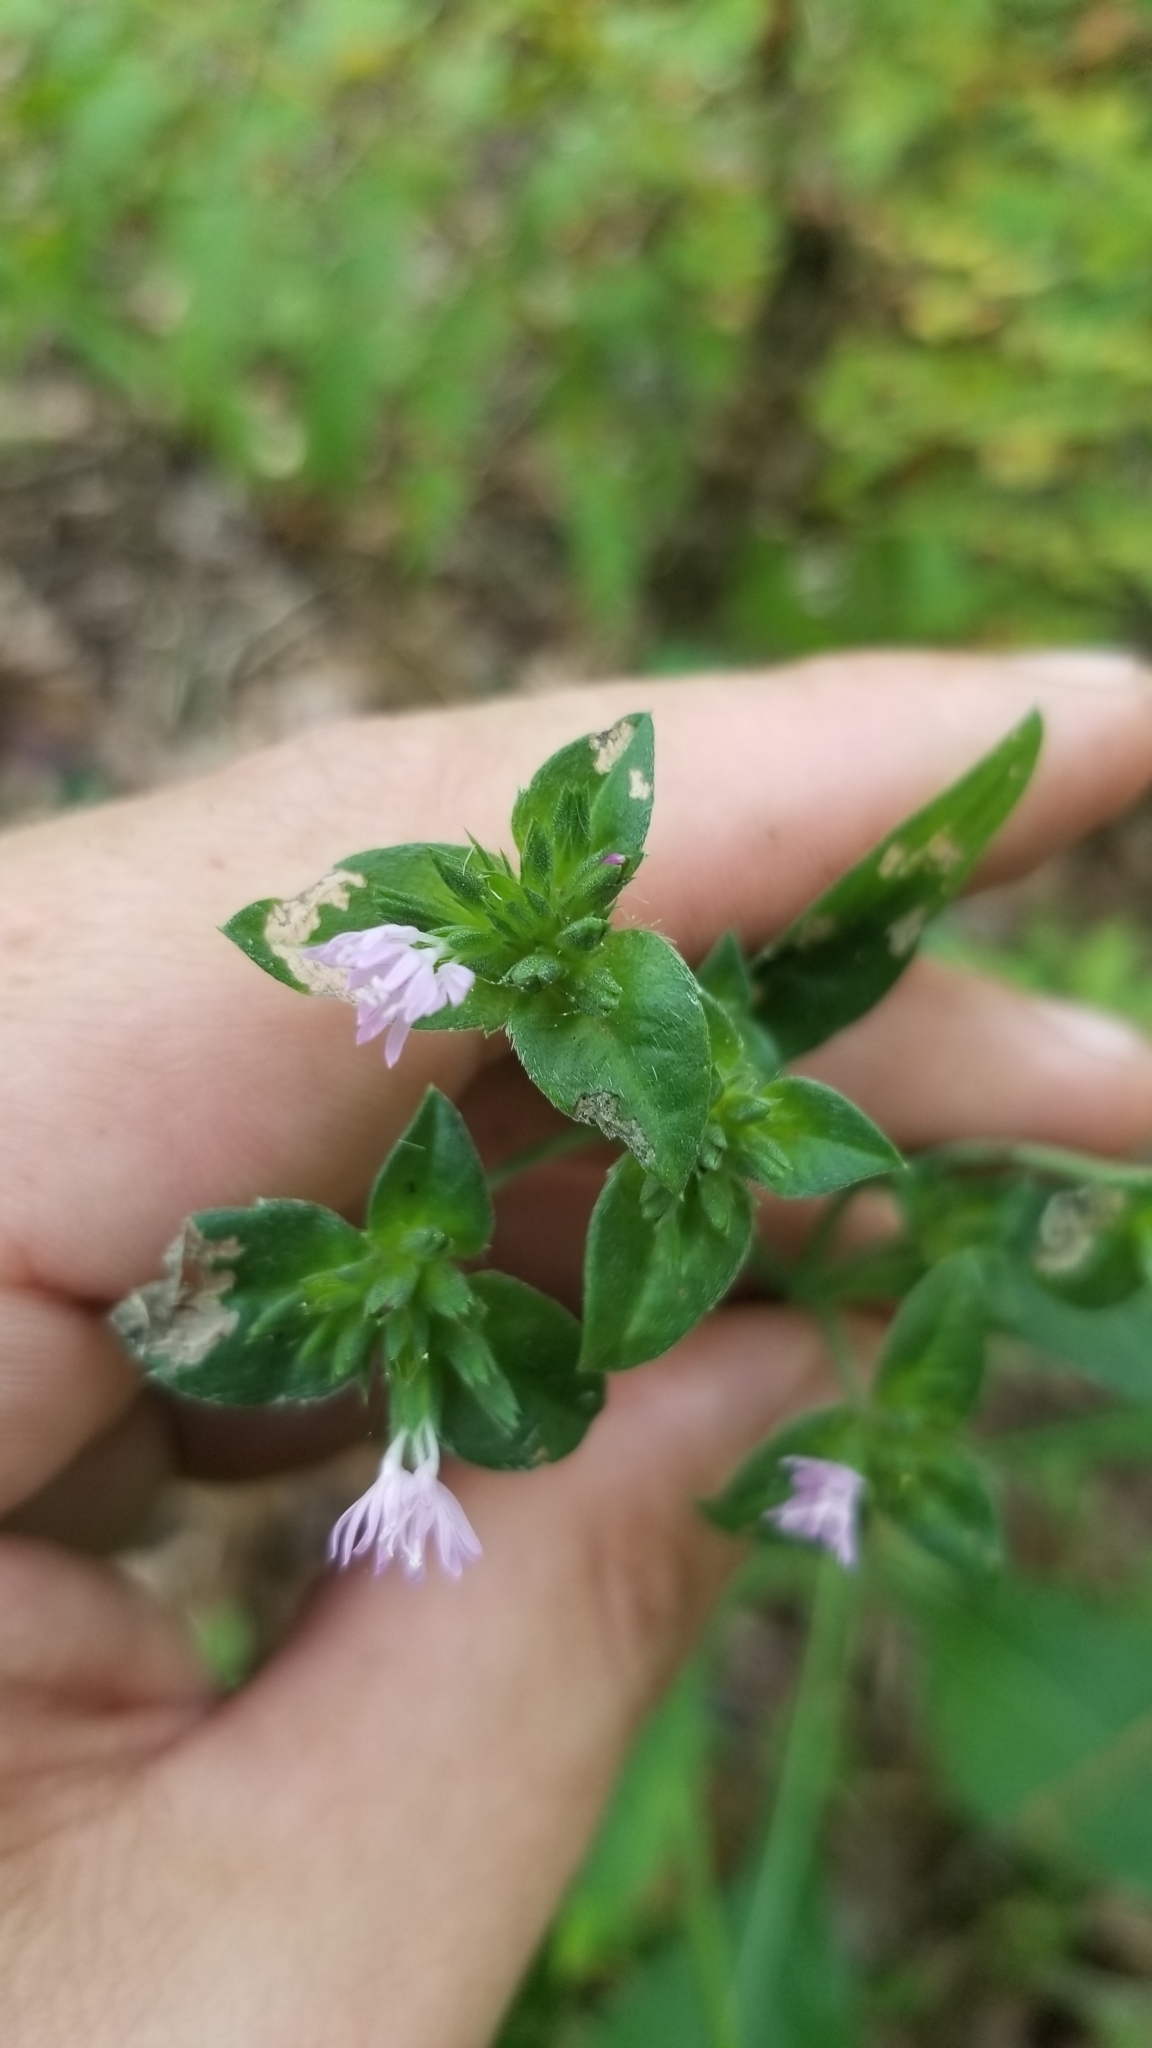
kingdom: Plantae
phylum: Tracheophyta
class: Magnoliopsida
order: Asterales
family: Asteraceae
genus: Elephantopus
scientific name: Elephantopus carolinianus
